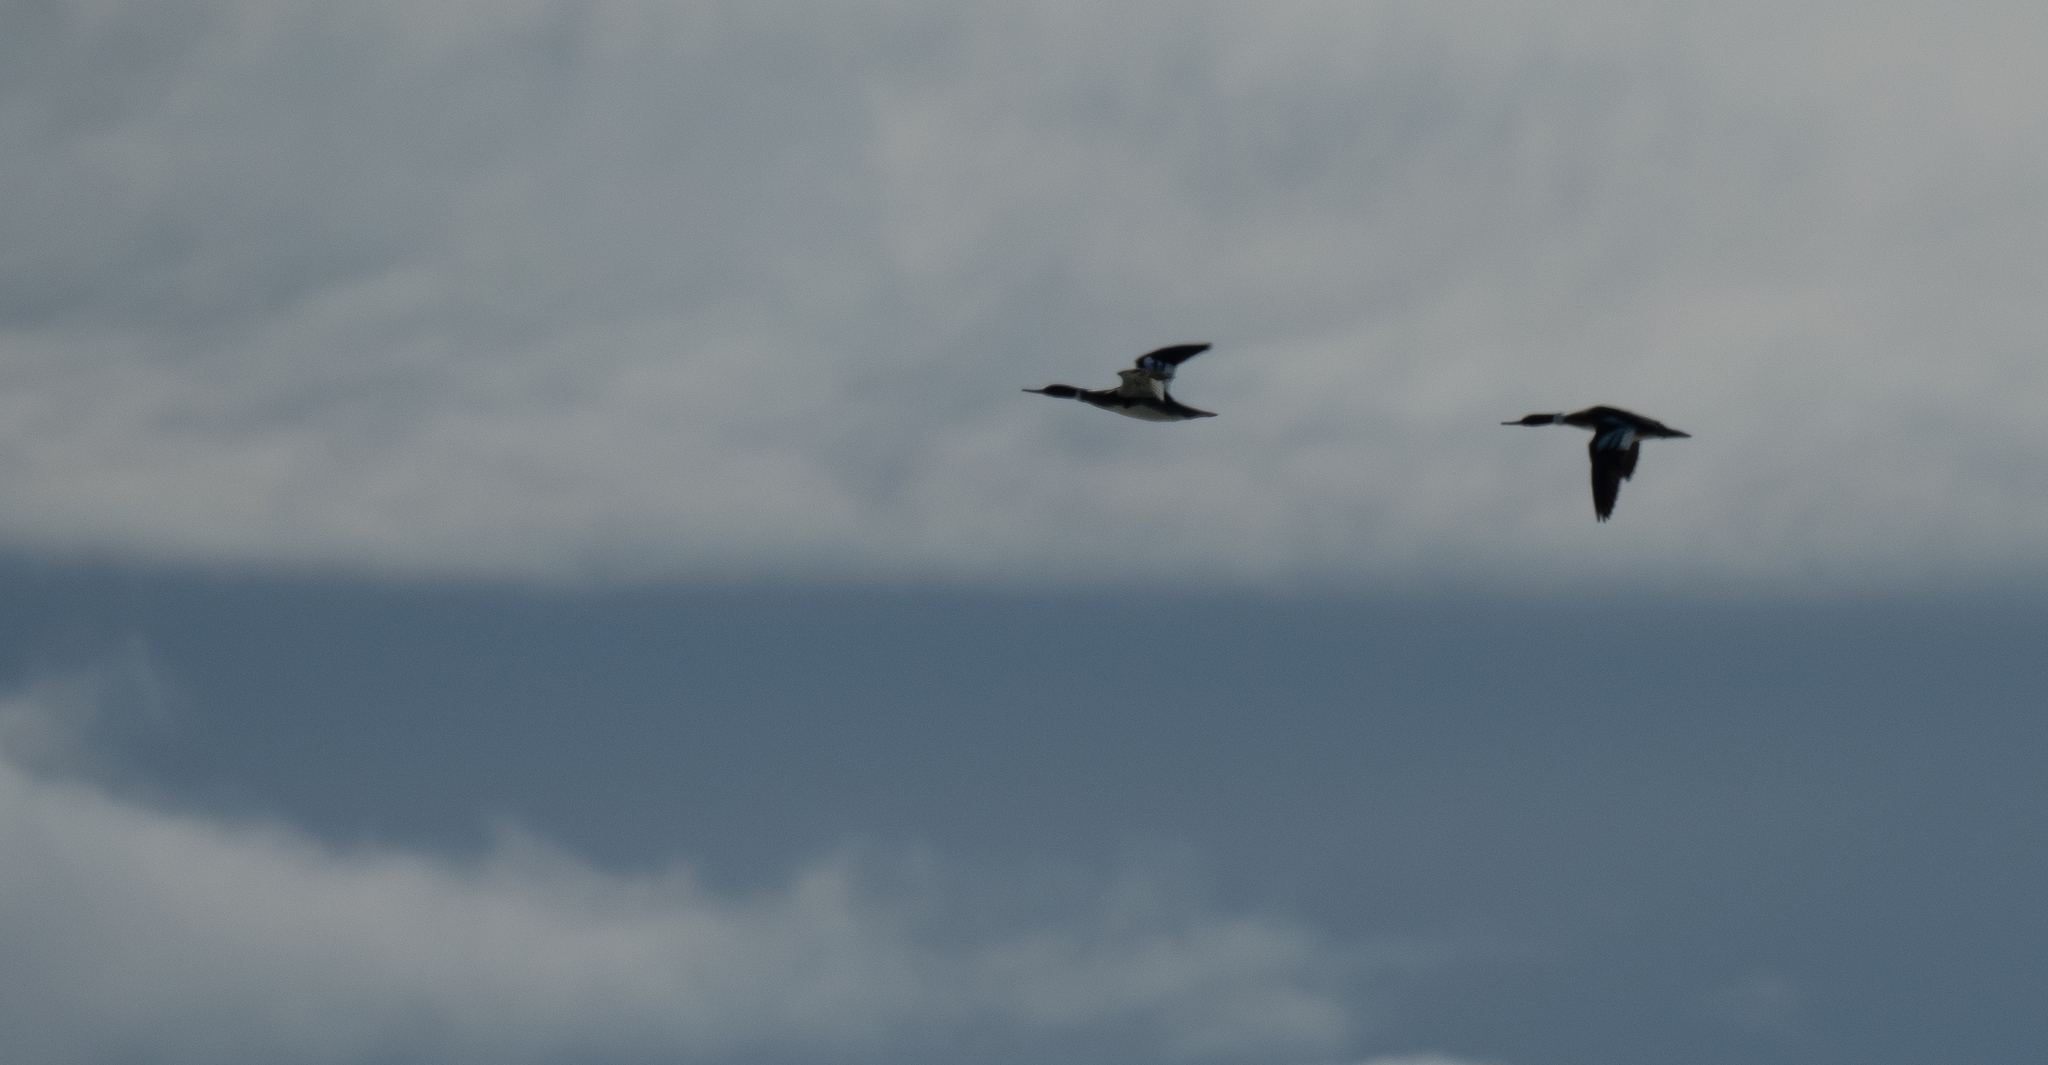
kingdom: Animalia
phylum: Chordata
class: Aves
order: Anseriformes
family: Anatidae
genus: Mergus
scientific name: Mergus serrator
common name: Red-breasted merganser
